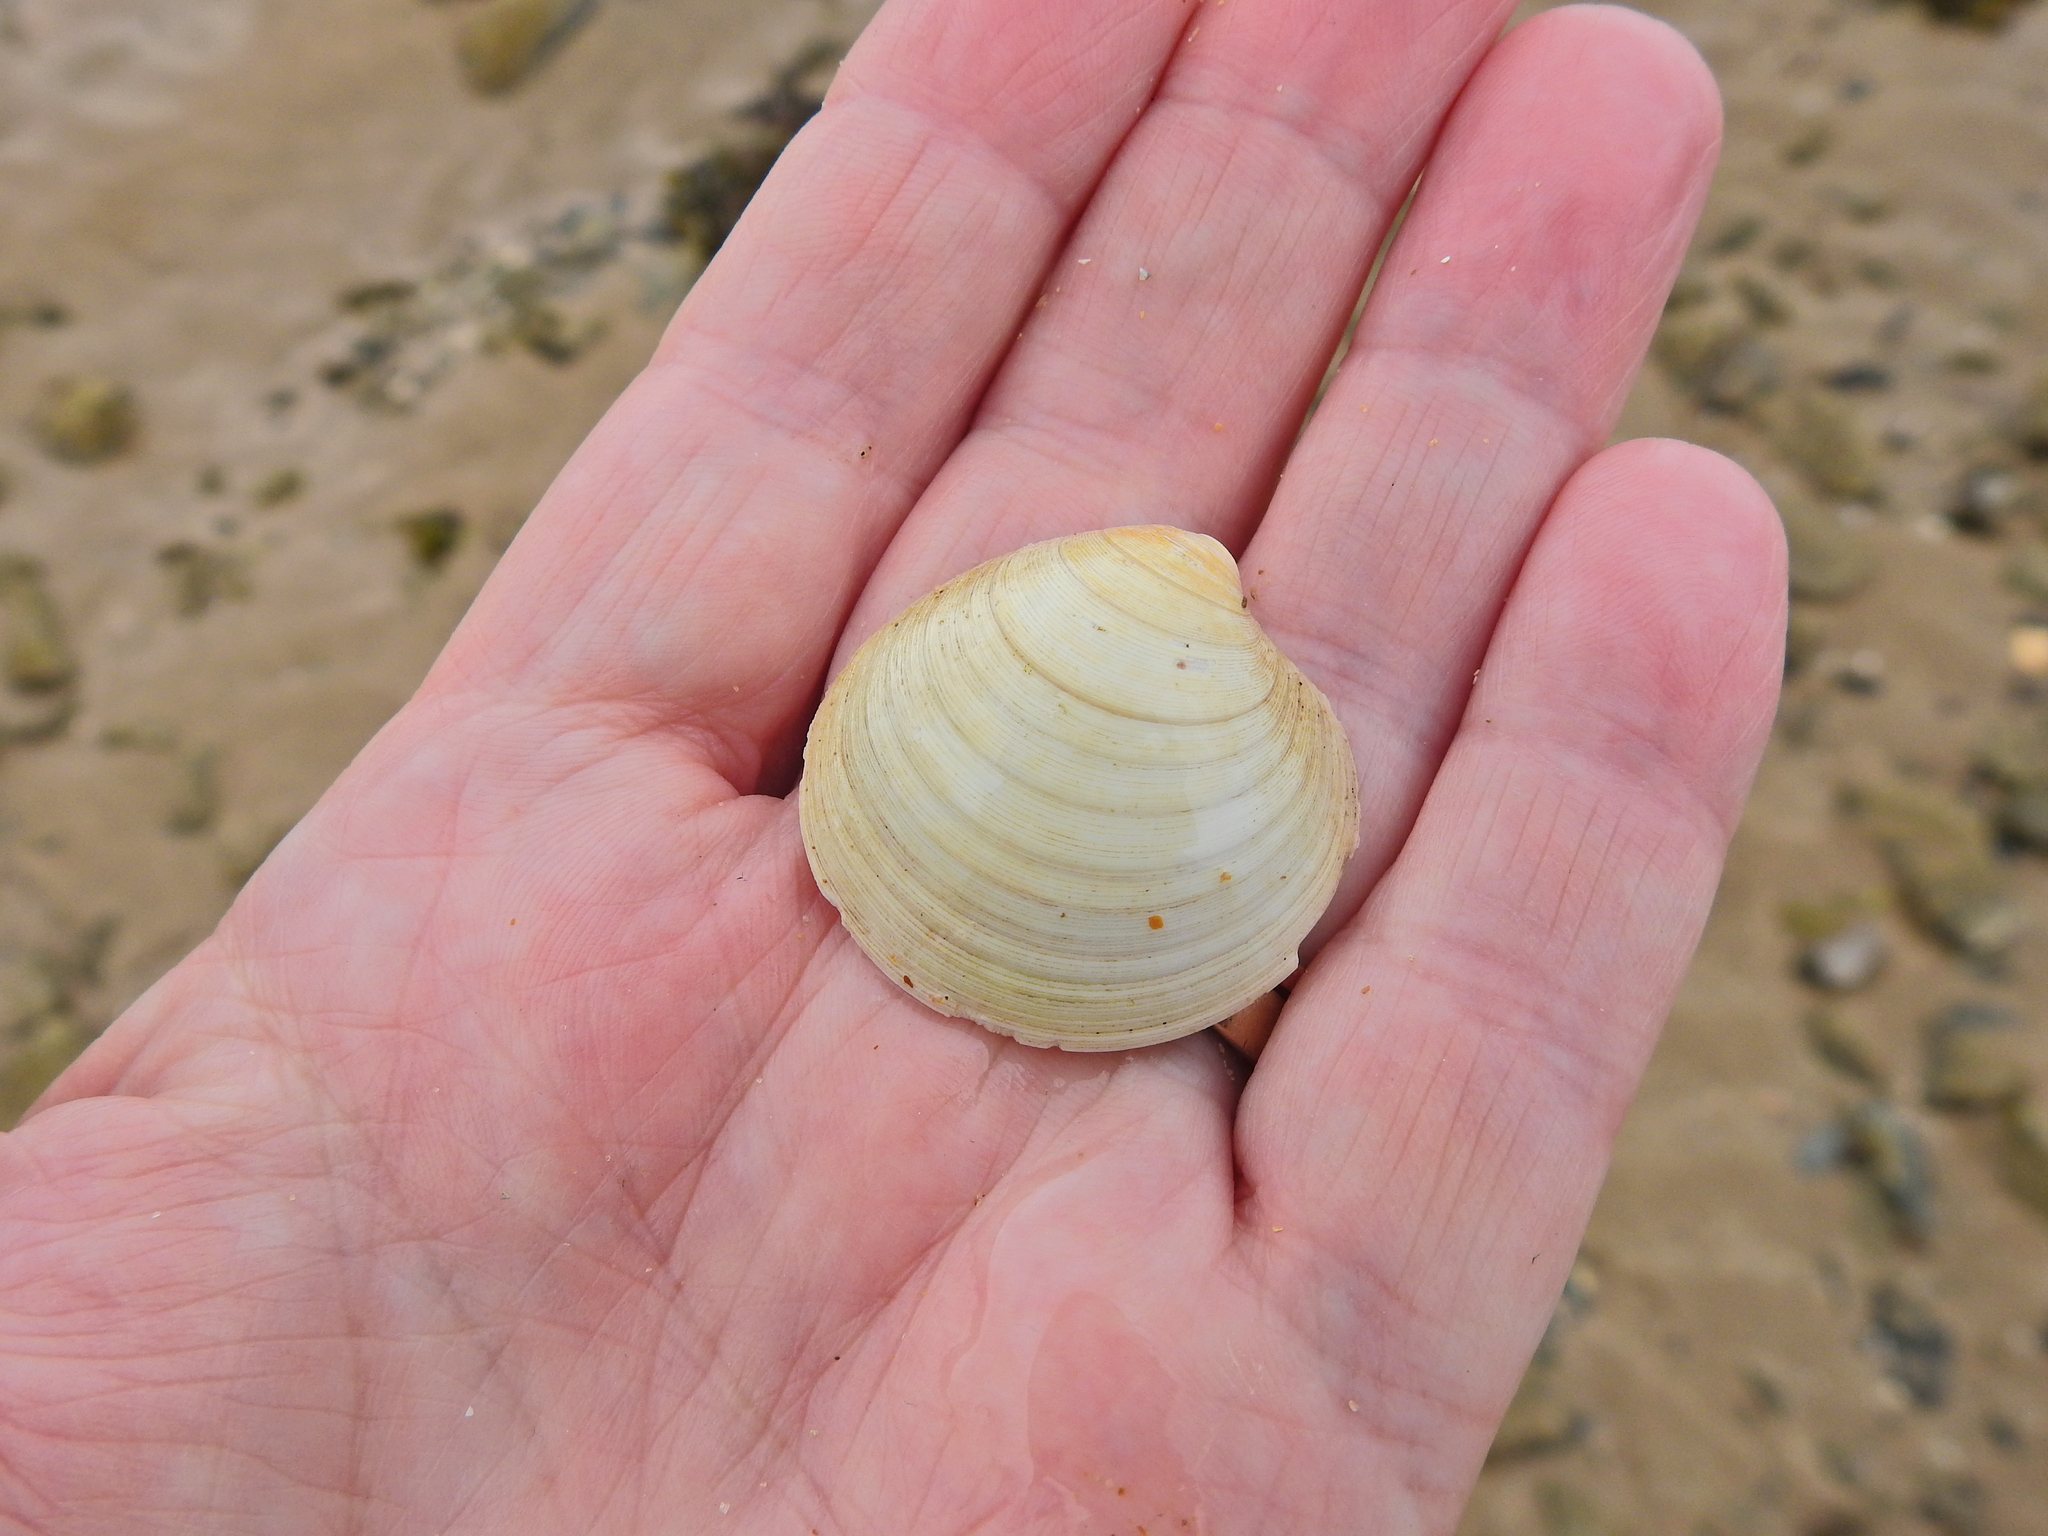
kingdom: Animalia
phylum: Mollusca
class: Bivalvia
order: Venerida
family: Veneridae
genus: Dosinia
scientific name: Dosinia exoleta
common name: Rayed artemis
